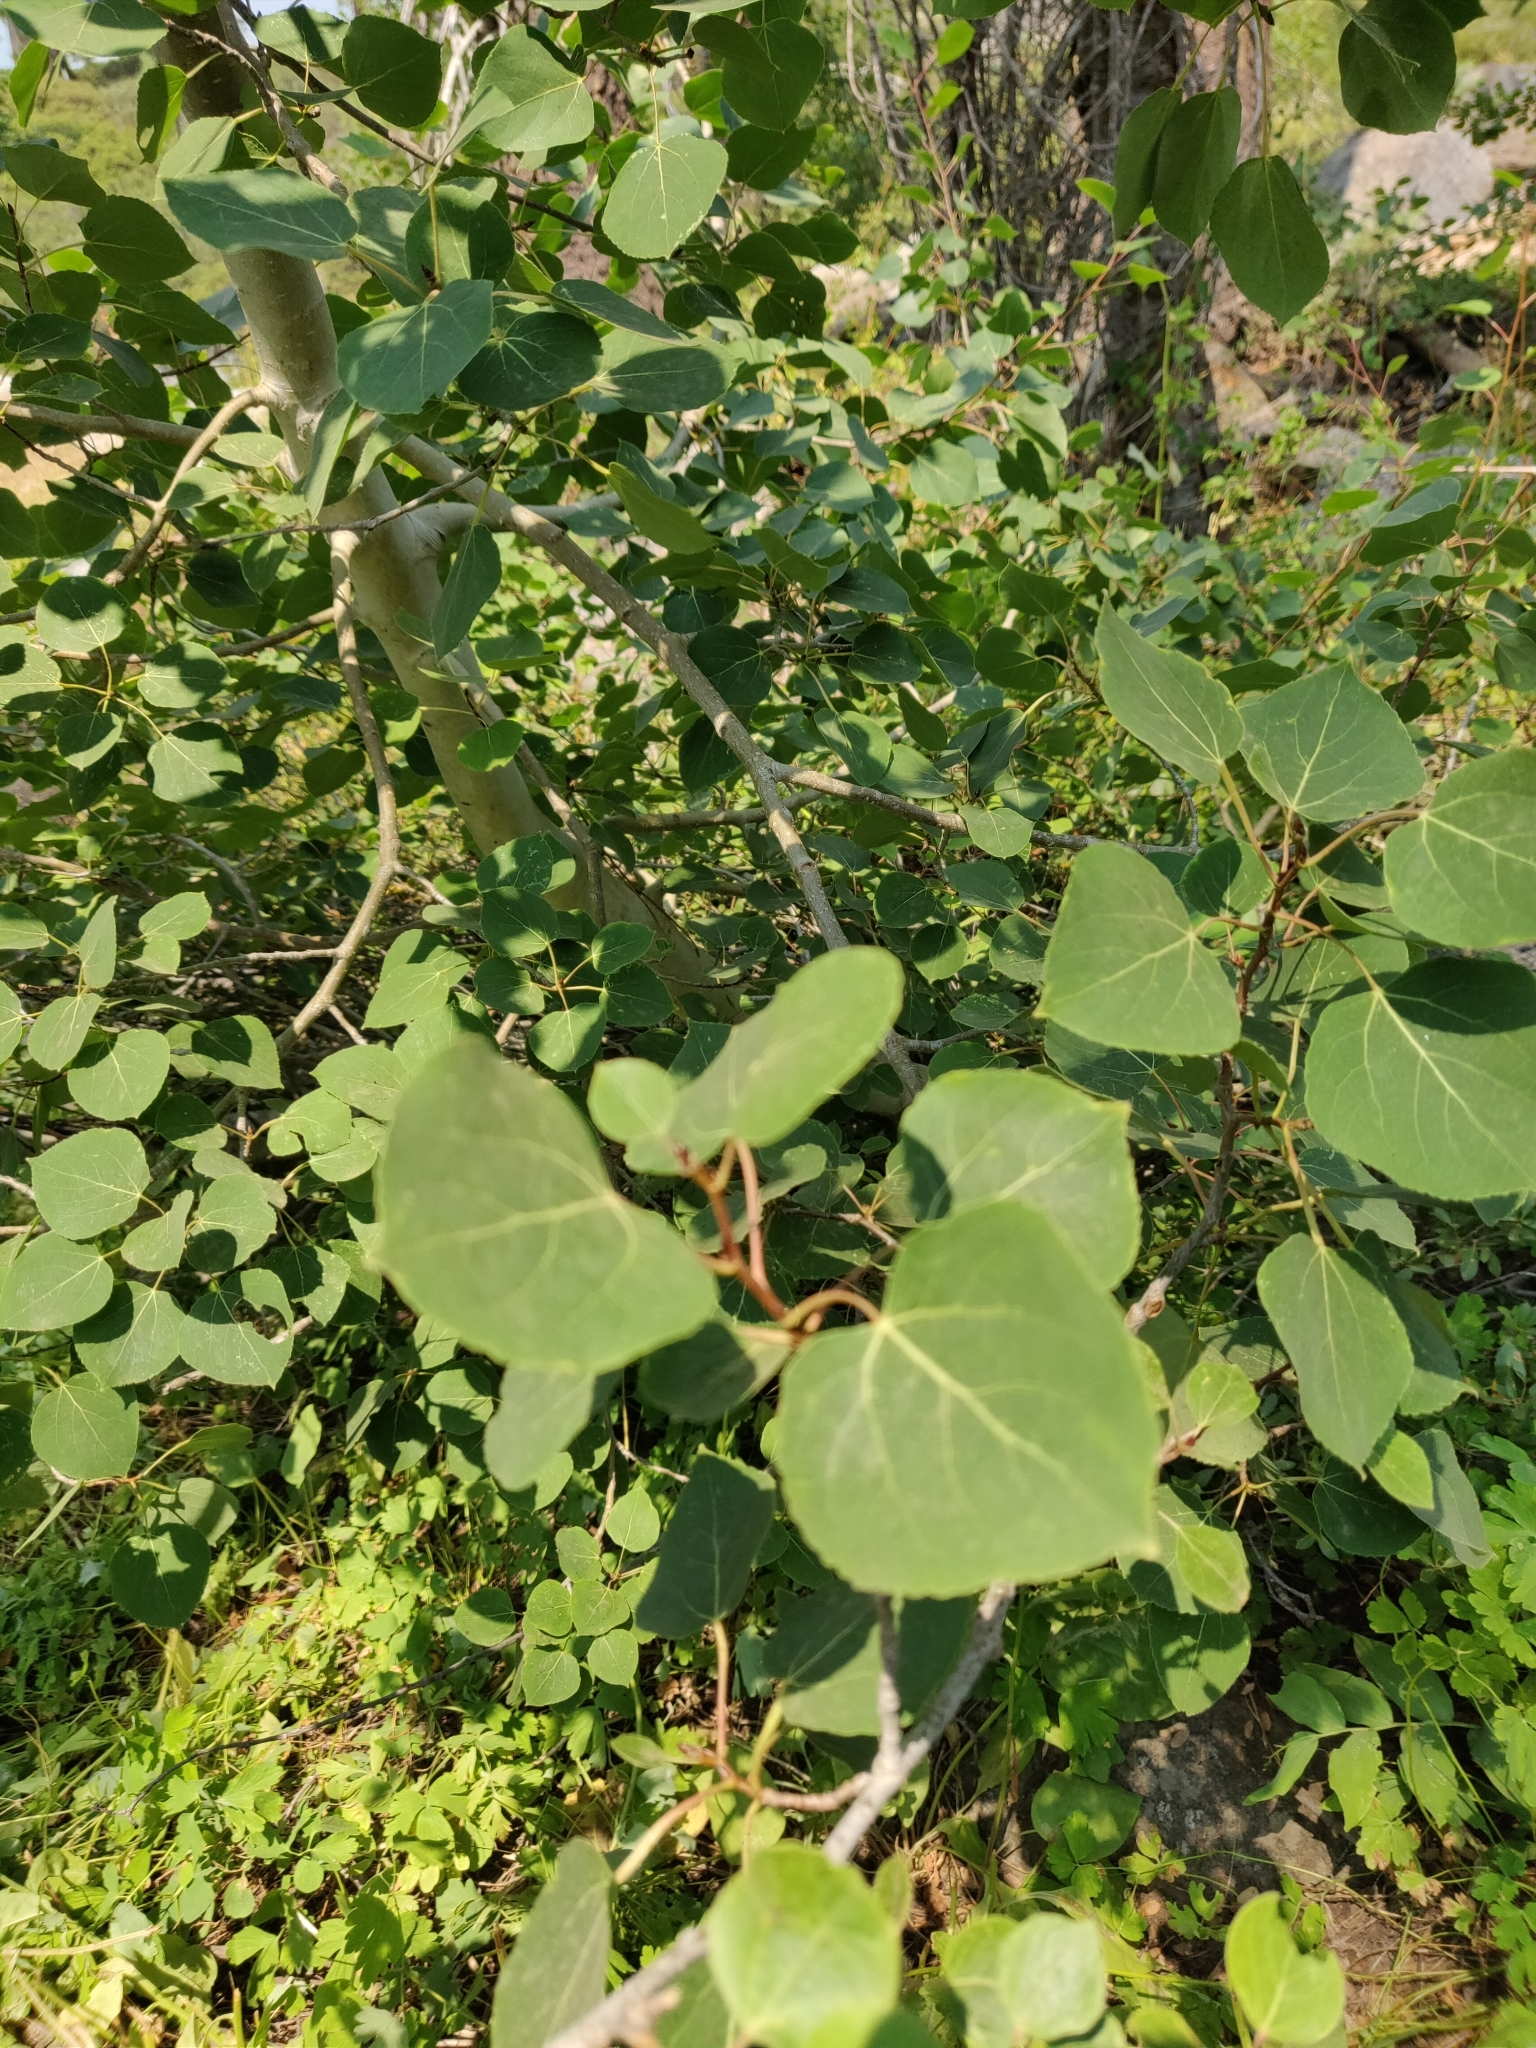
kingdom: Plantae
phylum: Tracheophyta
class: Magnoliopsida
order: Malpighiales
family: Salicaceae
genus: Populus
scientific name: Populus tremuloides
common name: Quaking aspen
